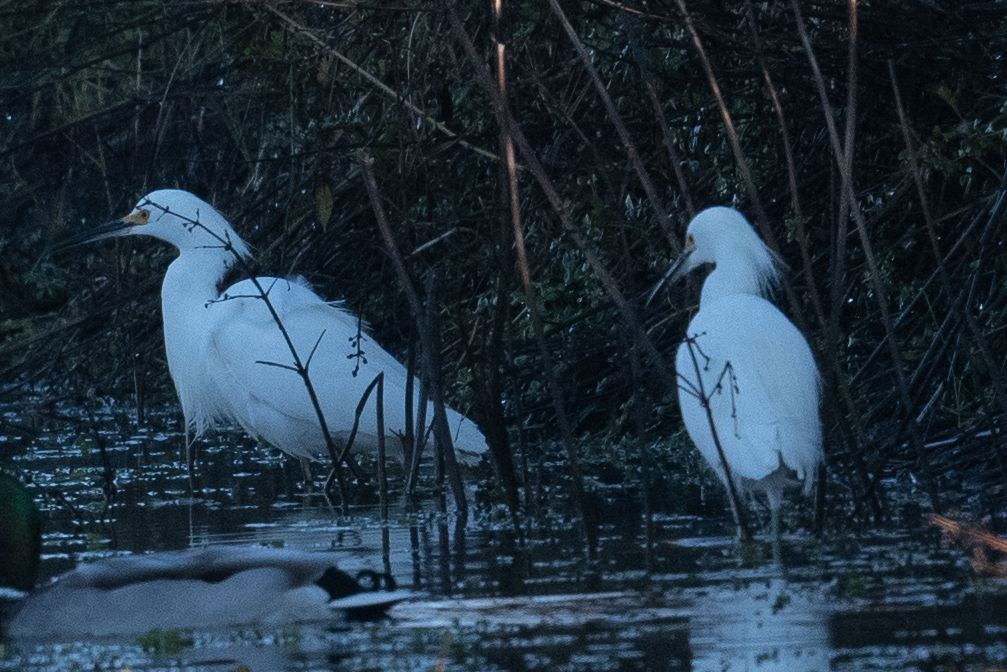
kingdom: Animalia
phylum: Chordata
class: Aves
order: Pelecaniformes
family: Ardeidae
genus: Egretta
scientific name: Egretta thula
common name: Snowy egret
